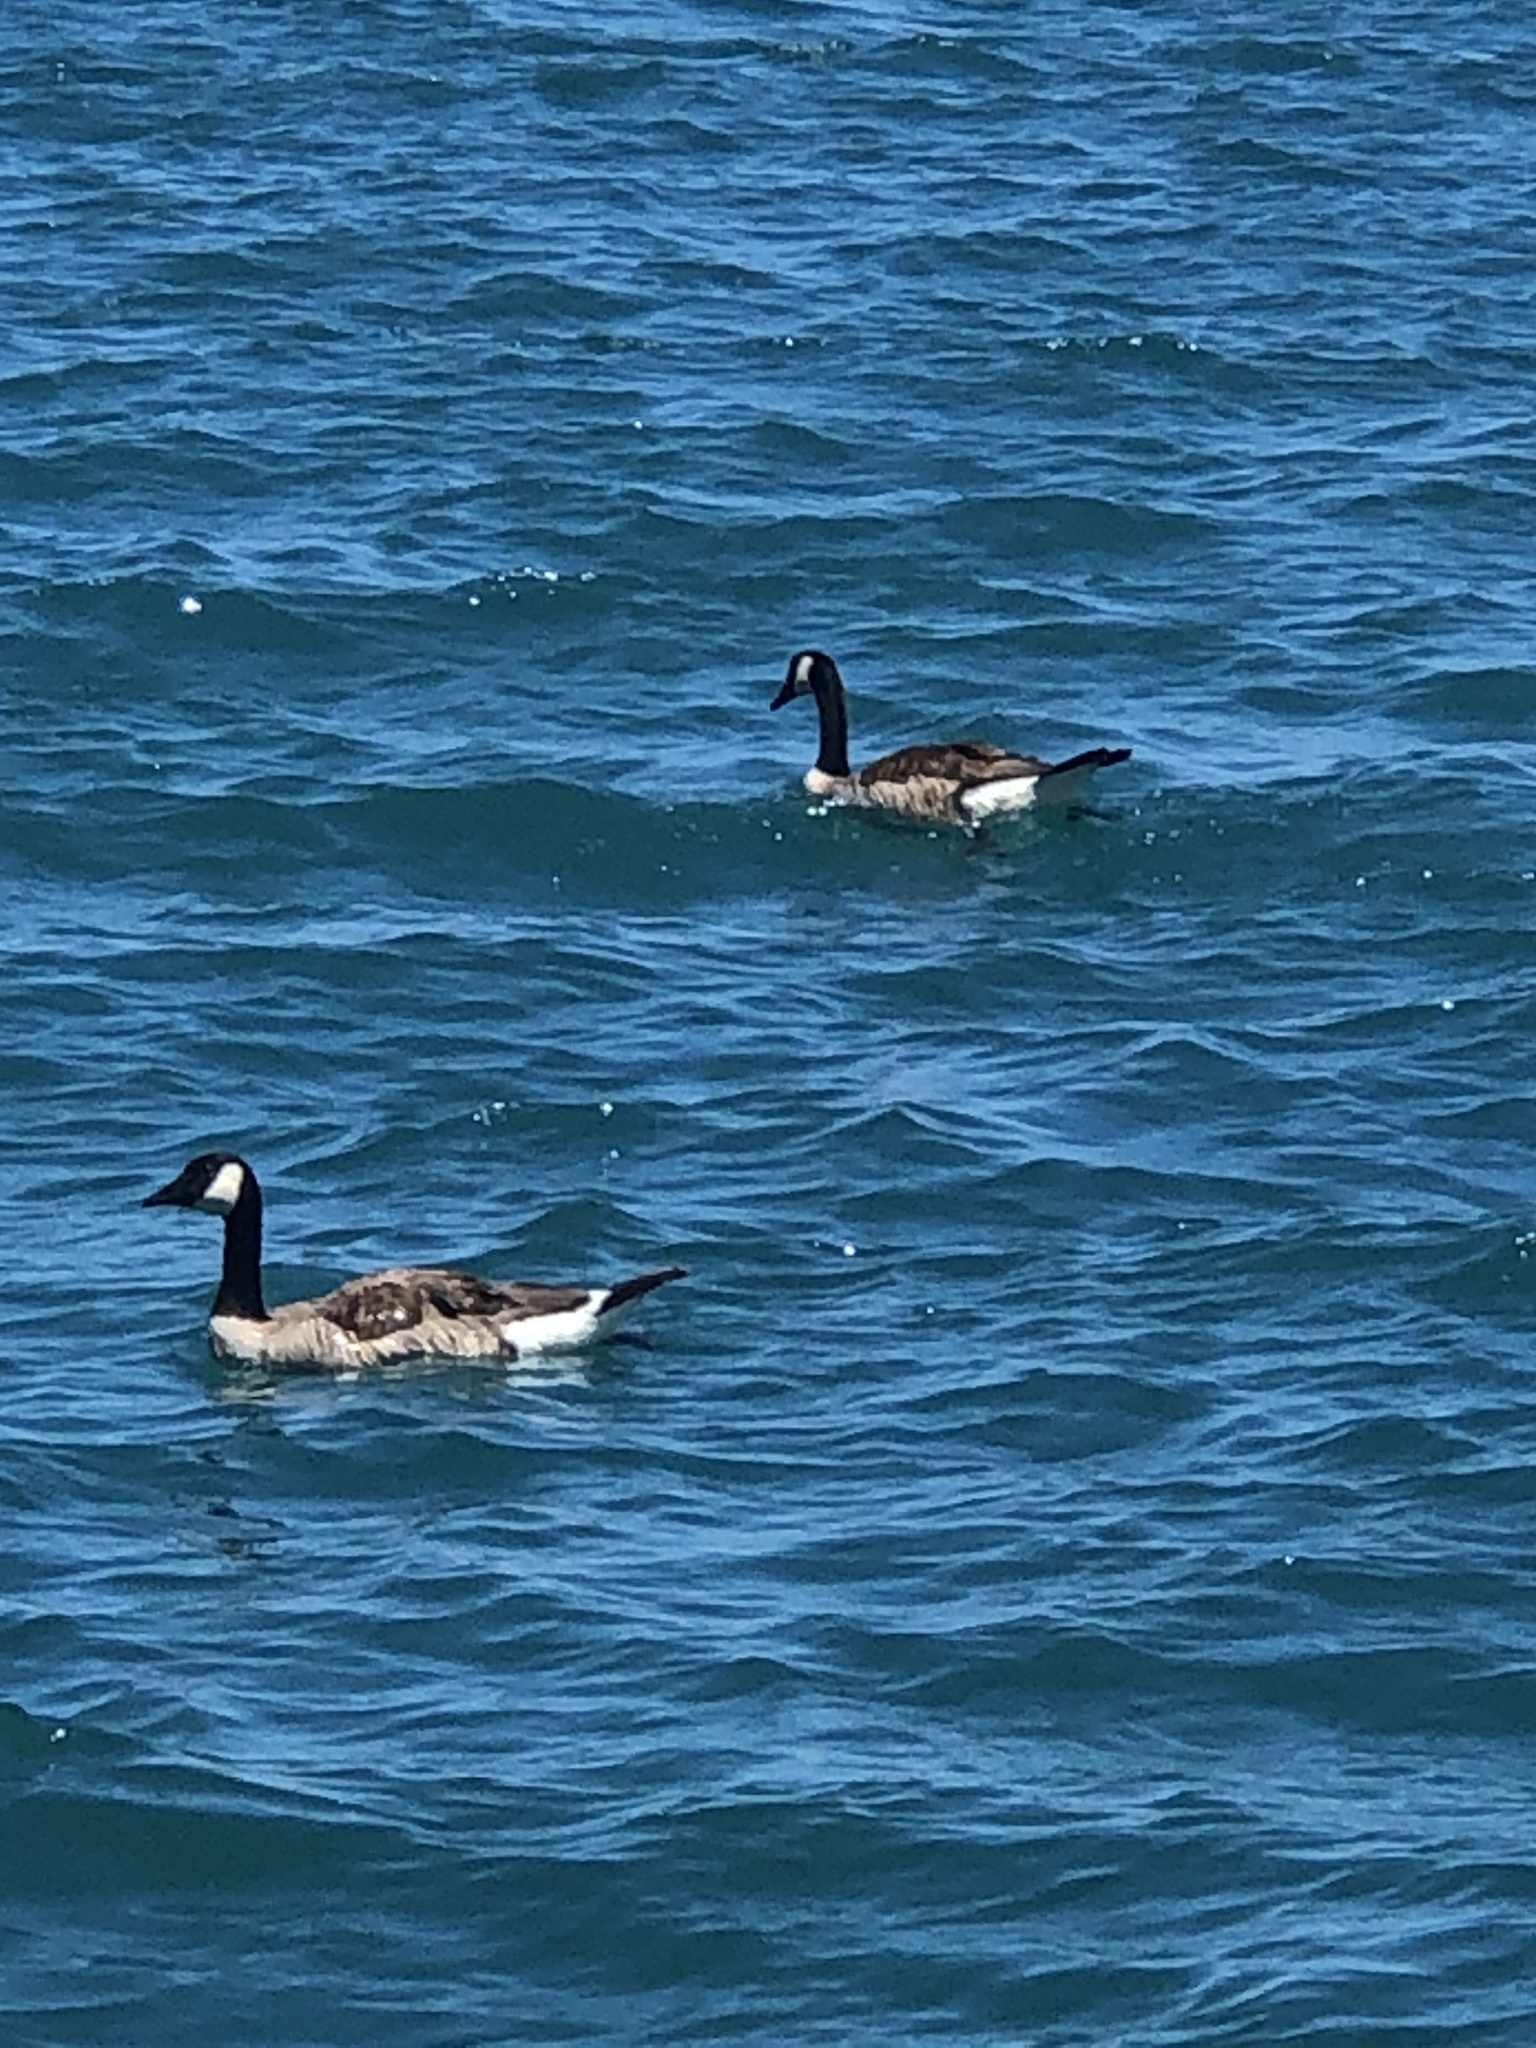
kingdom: Animalia
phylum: Chordata
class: Aves
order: Anseriformes
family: Anatidae
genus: Branta
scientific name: Branta canadensis
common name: Canada goose
